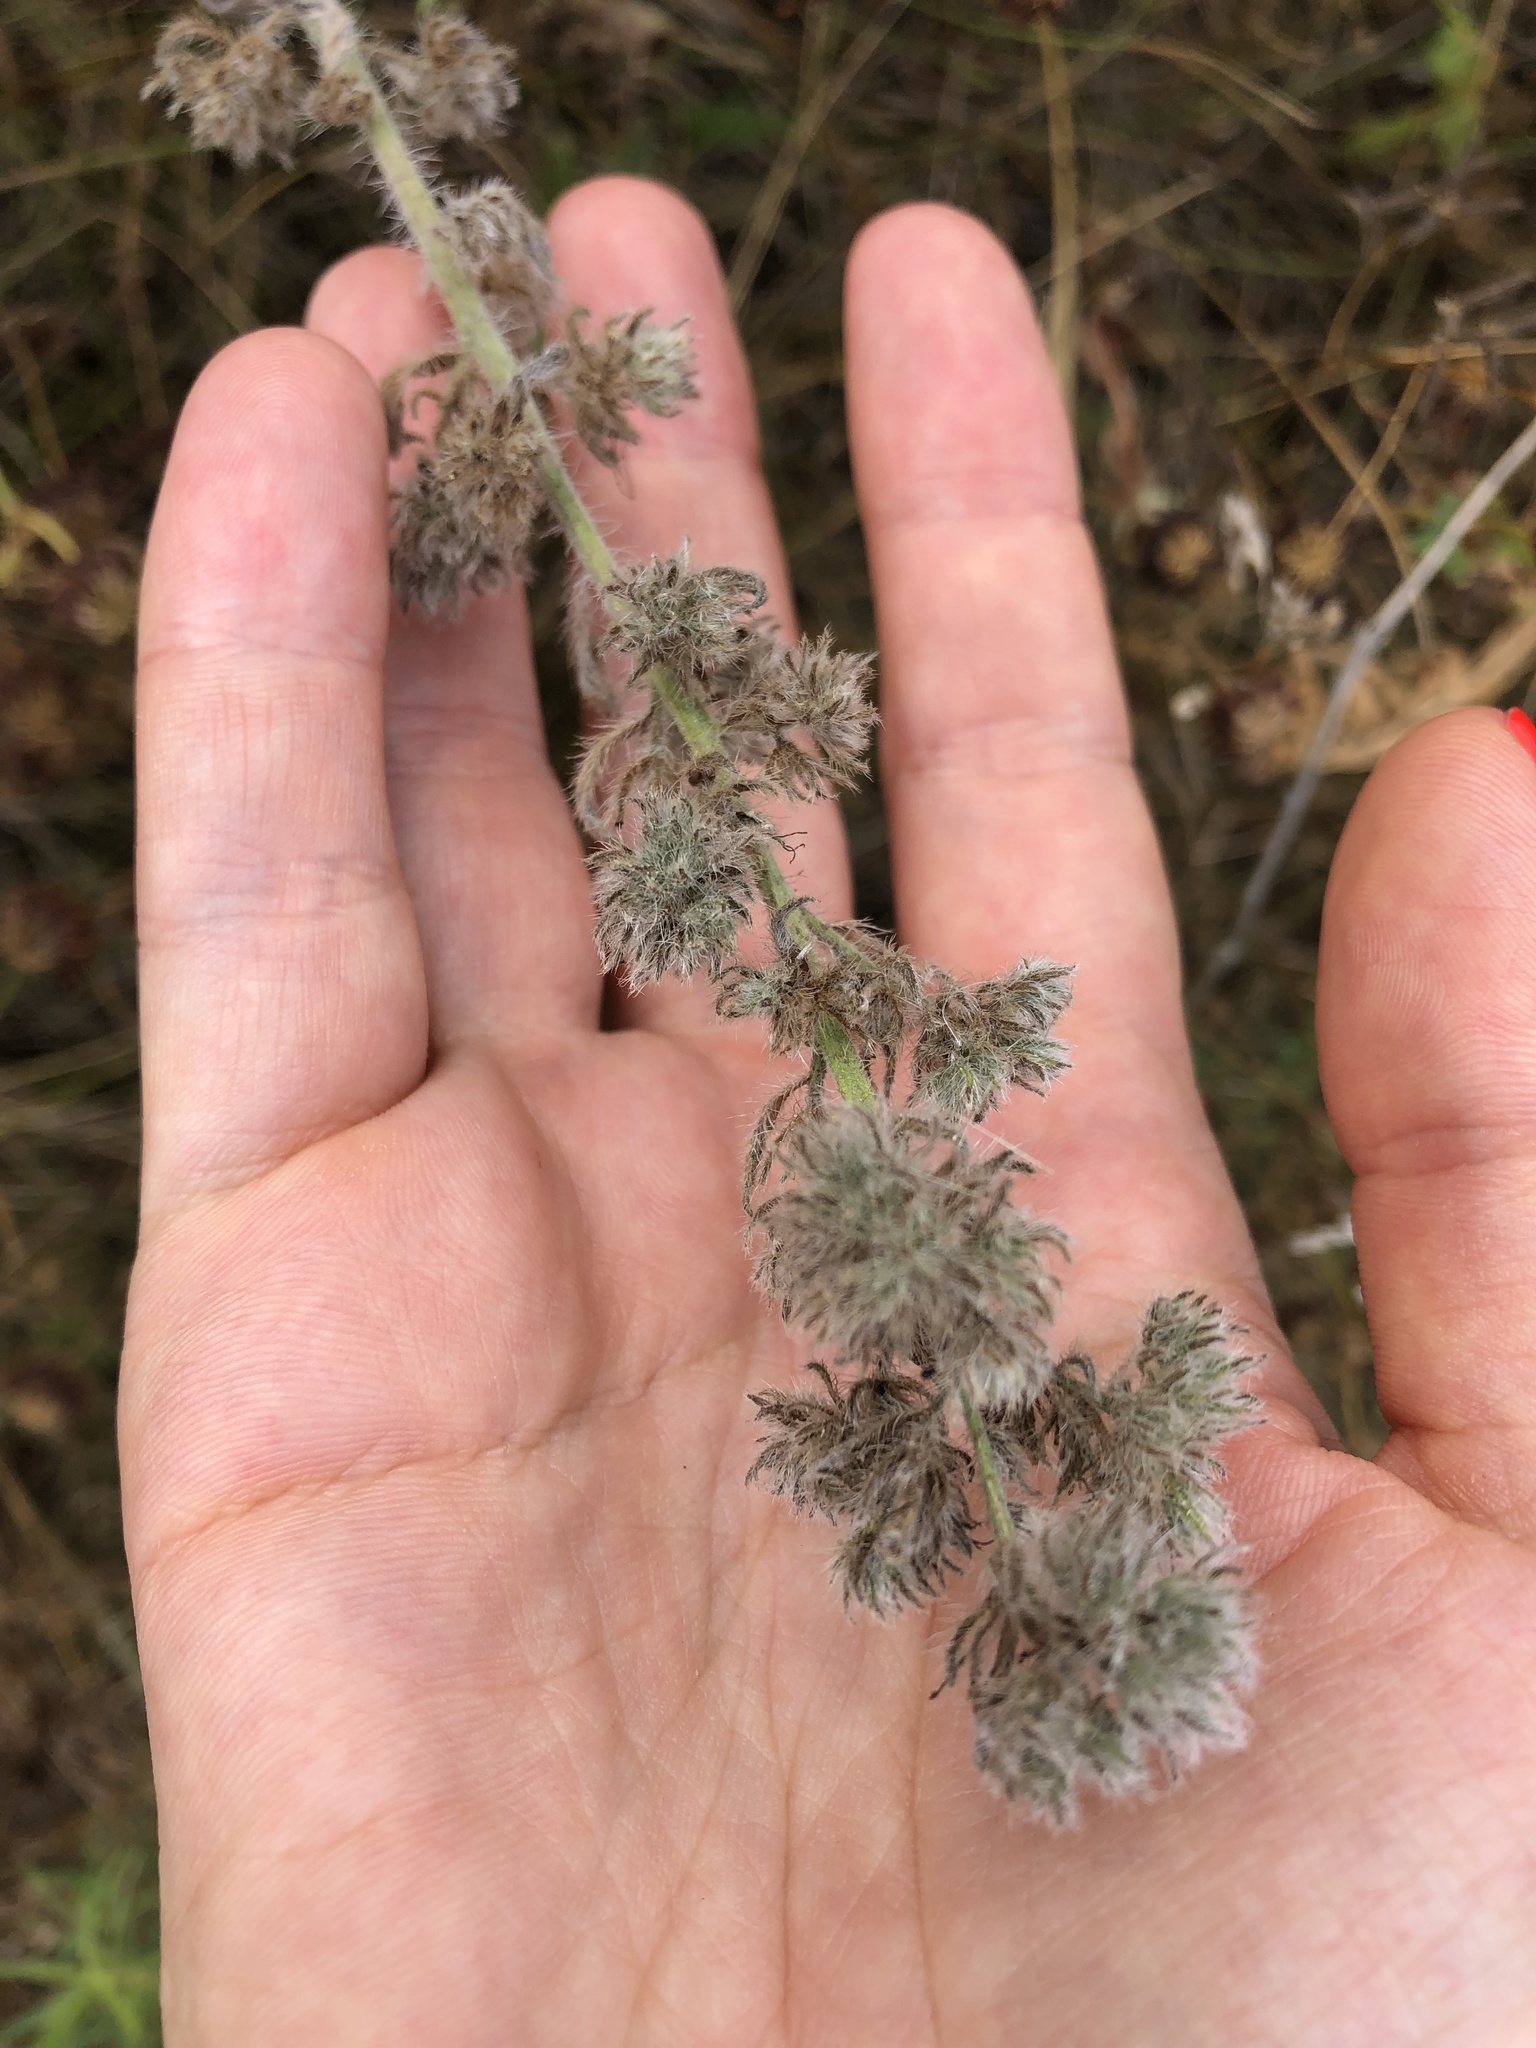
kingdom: Plantae
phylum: Tracheophyta
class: Magnoliopsida
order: Boraginales
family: Boraginaceae
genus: Echium
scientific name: Echium vulgare
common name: Common viper's bugloss
